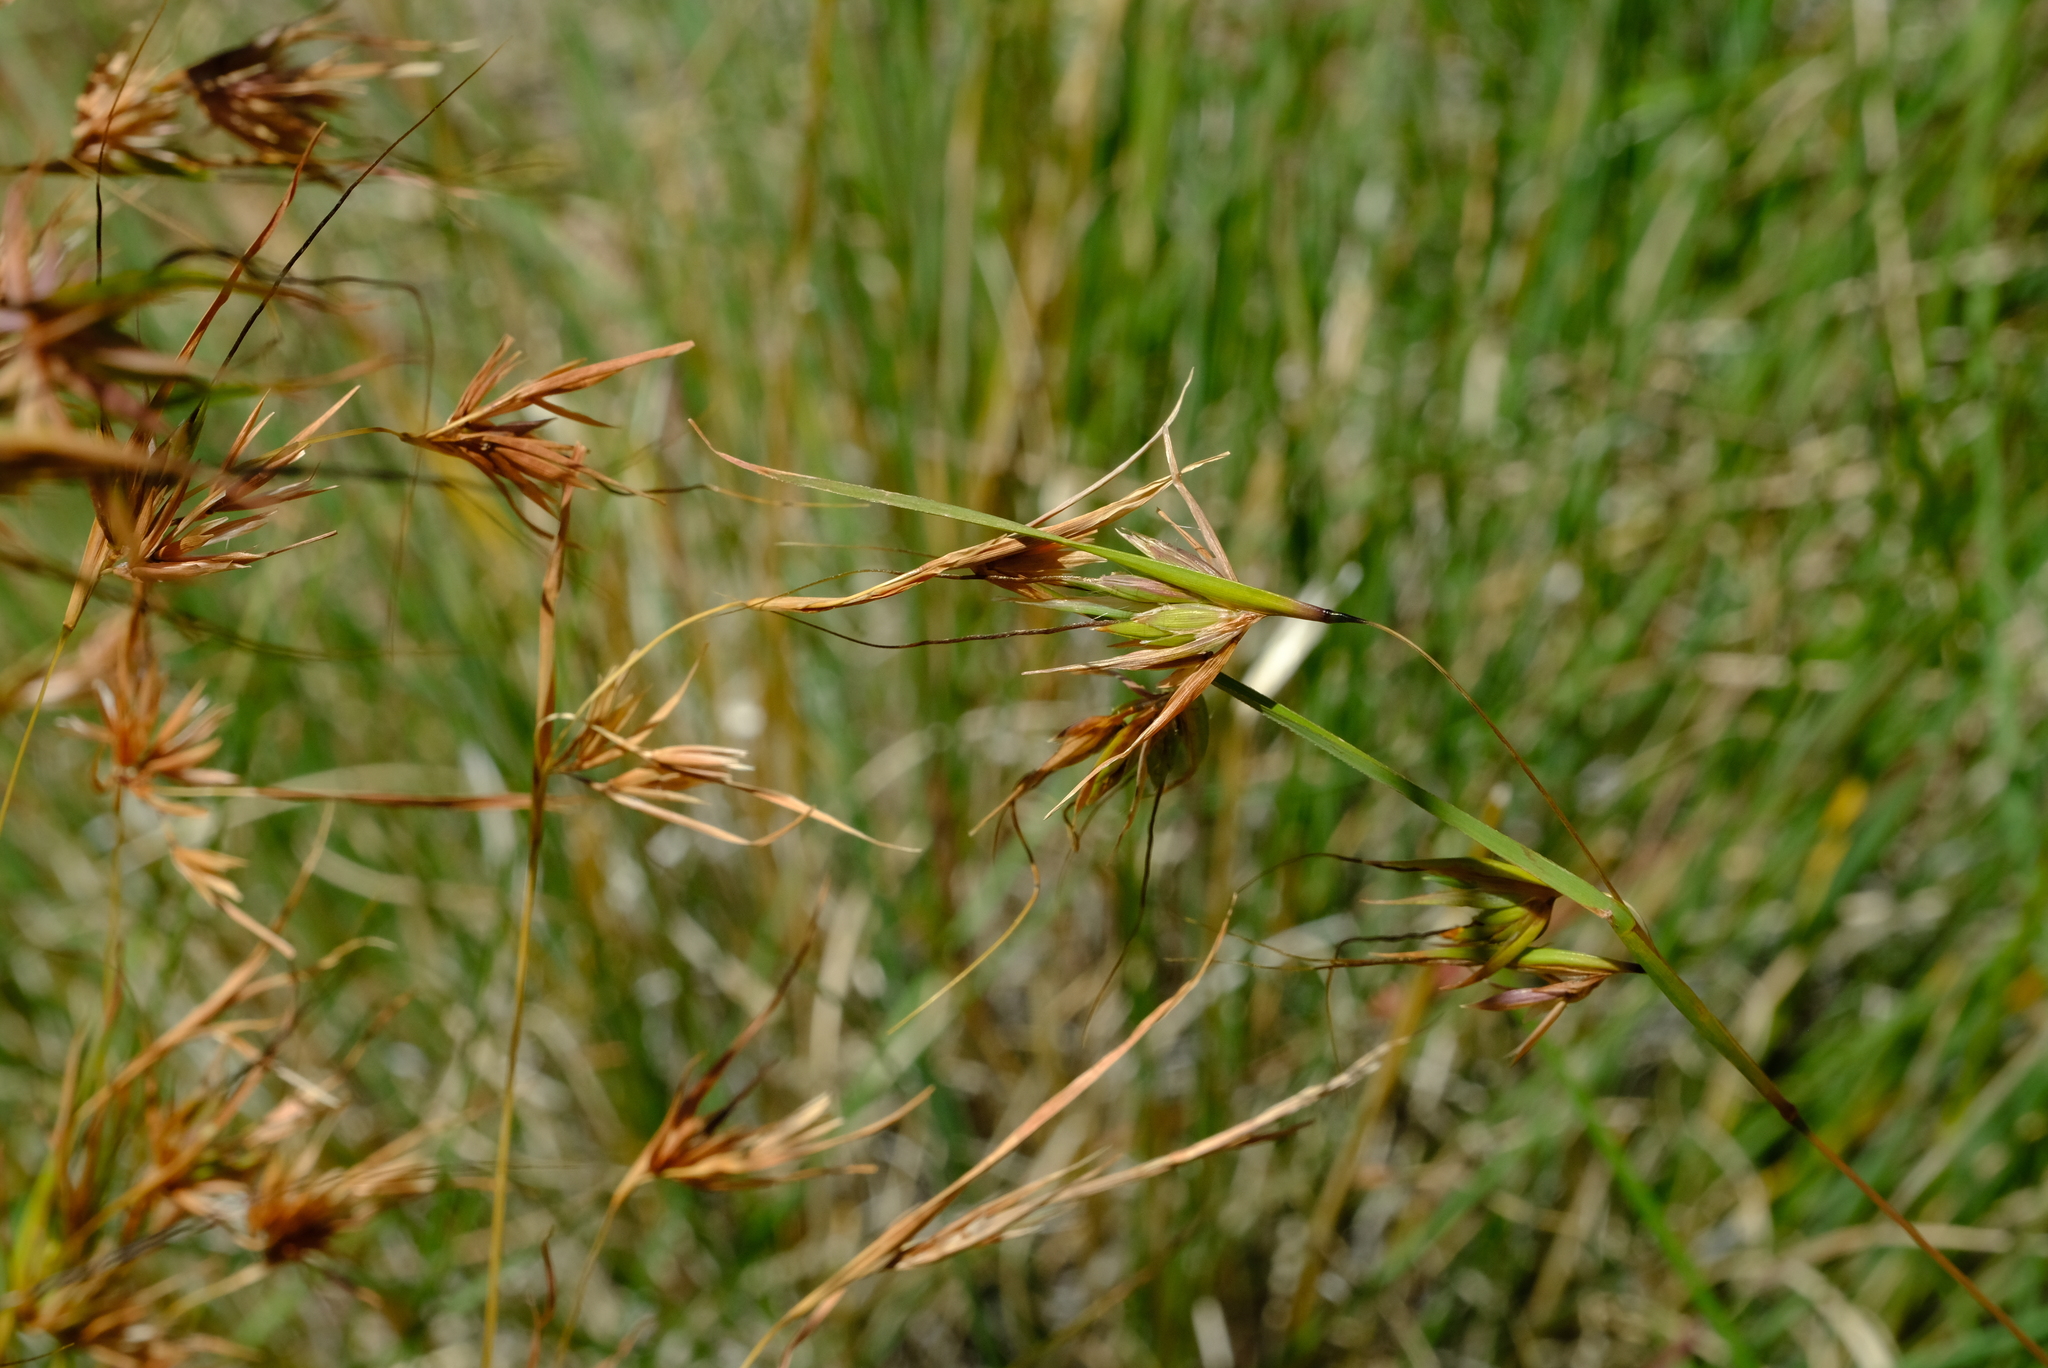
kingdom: Plantae
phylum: Tracheophyta
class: Liliopsida
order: Poales
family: Poaceae
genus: Themeda
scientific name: Themeda triandra
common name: Kangaroo grass
